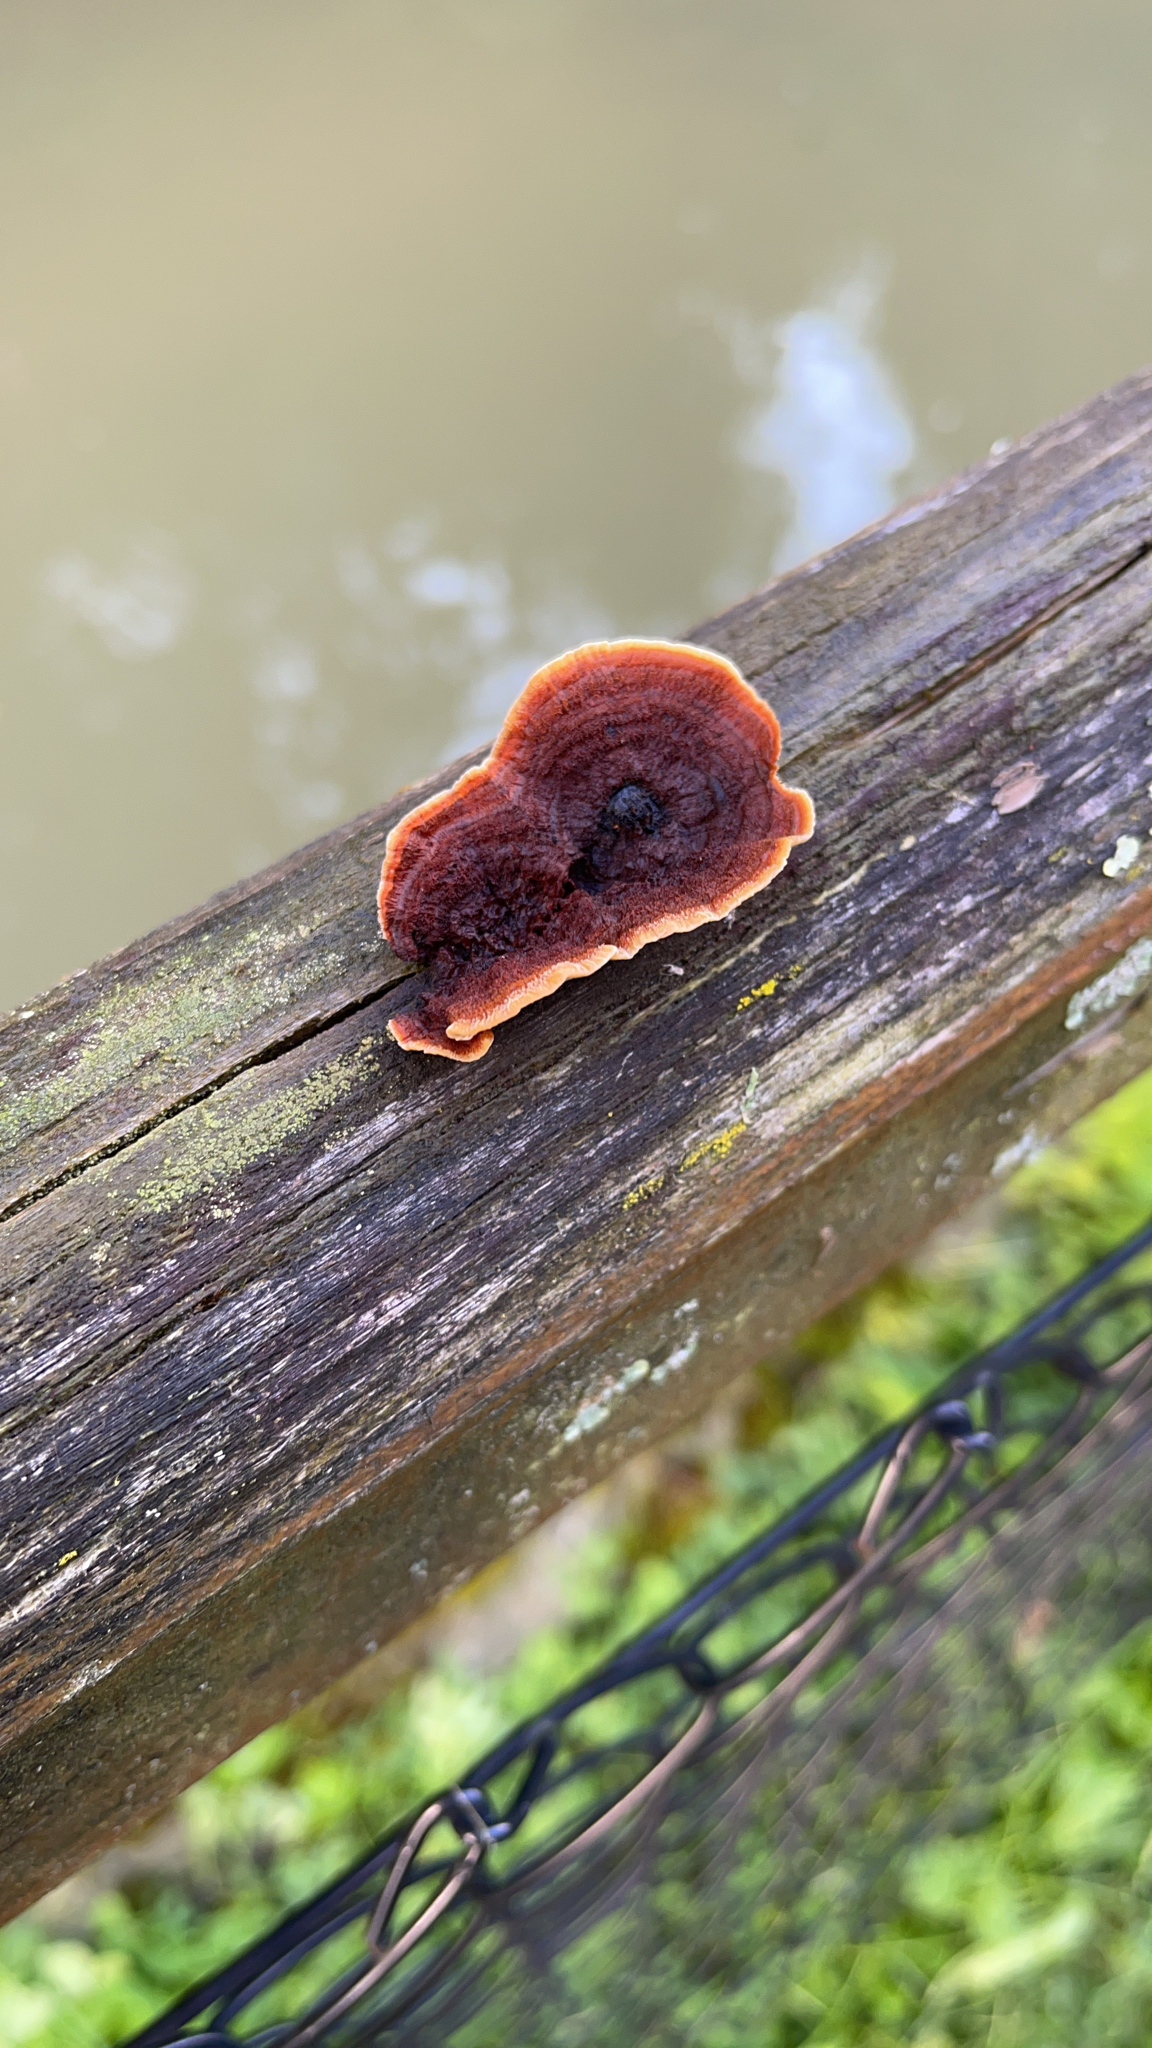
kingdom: Fungi
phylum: Basidiomycota
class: Agaricomycetes
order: Gloeophyllales
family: Gloeophyllaceae
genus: Gloeophyllum
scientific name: Gloeophyllum sepiarium
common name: Conifer mazegill
